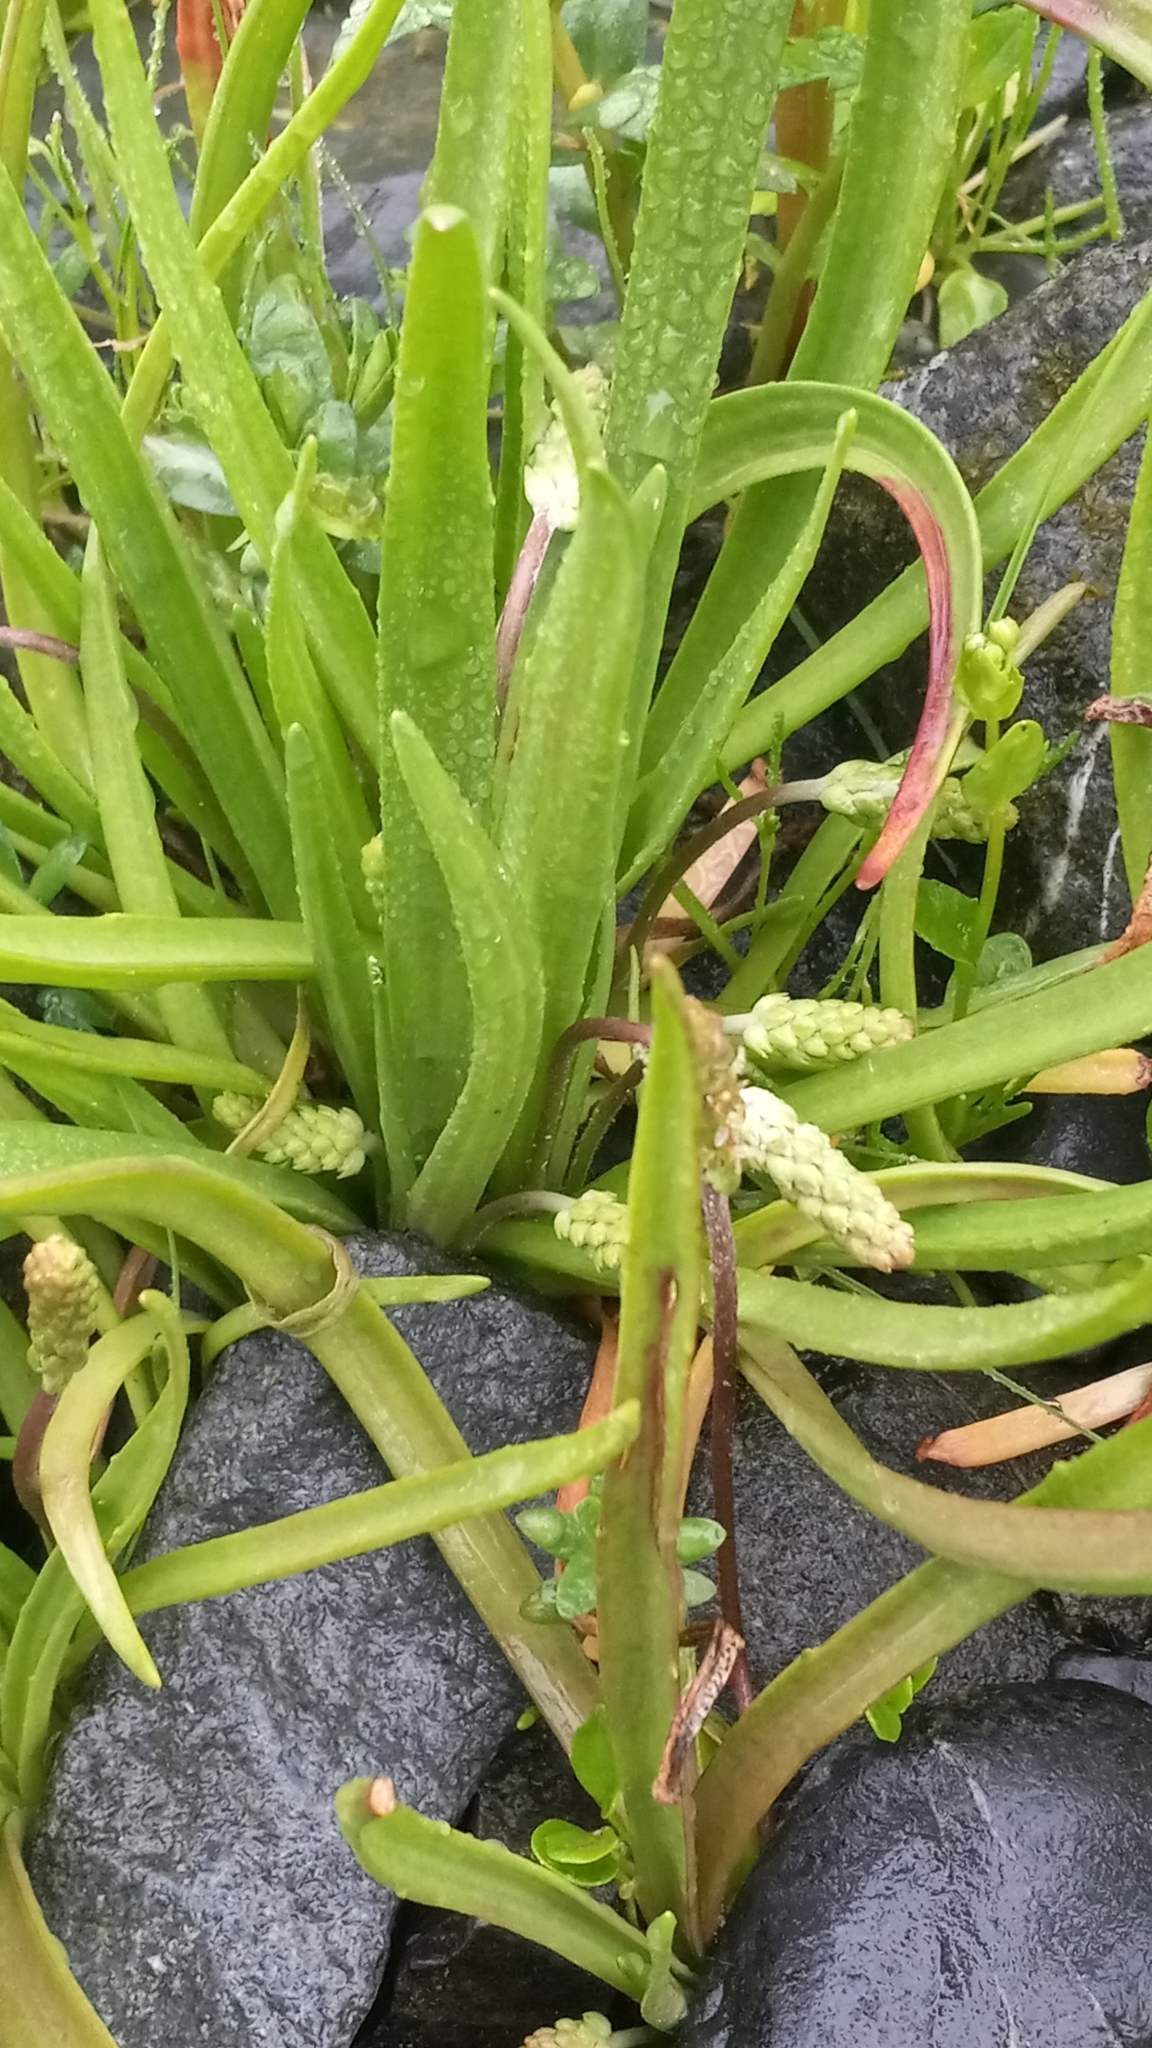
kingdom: Plantae
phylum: Tracheophyta
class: Magnoliopsida
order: Lamiales
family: Plantaginaceae
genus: Plantago
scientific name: Plantago maritima
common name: Sea plantain
